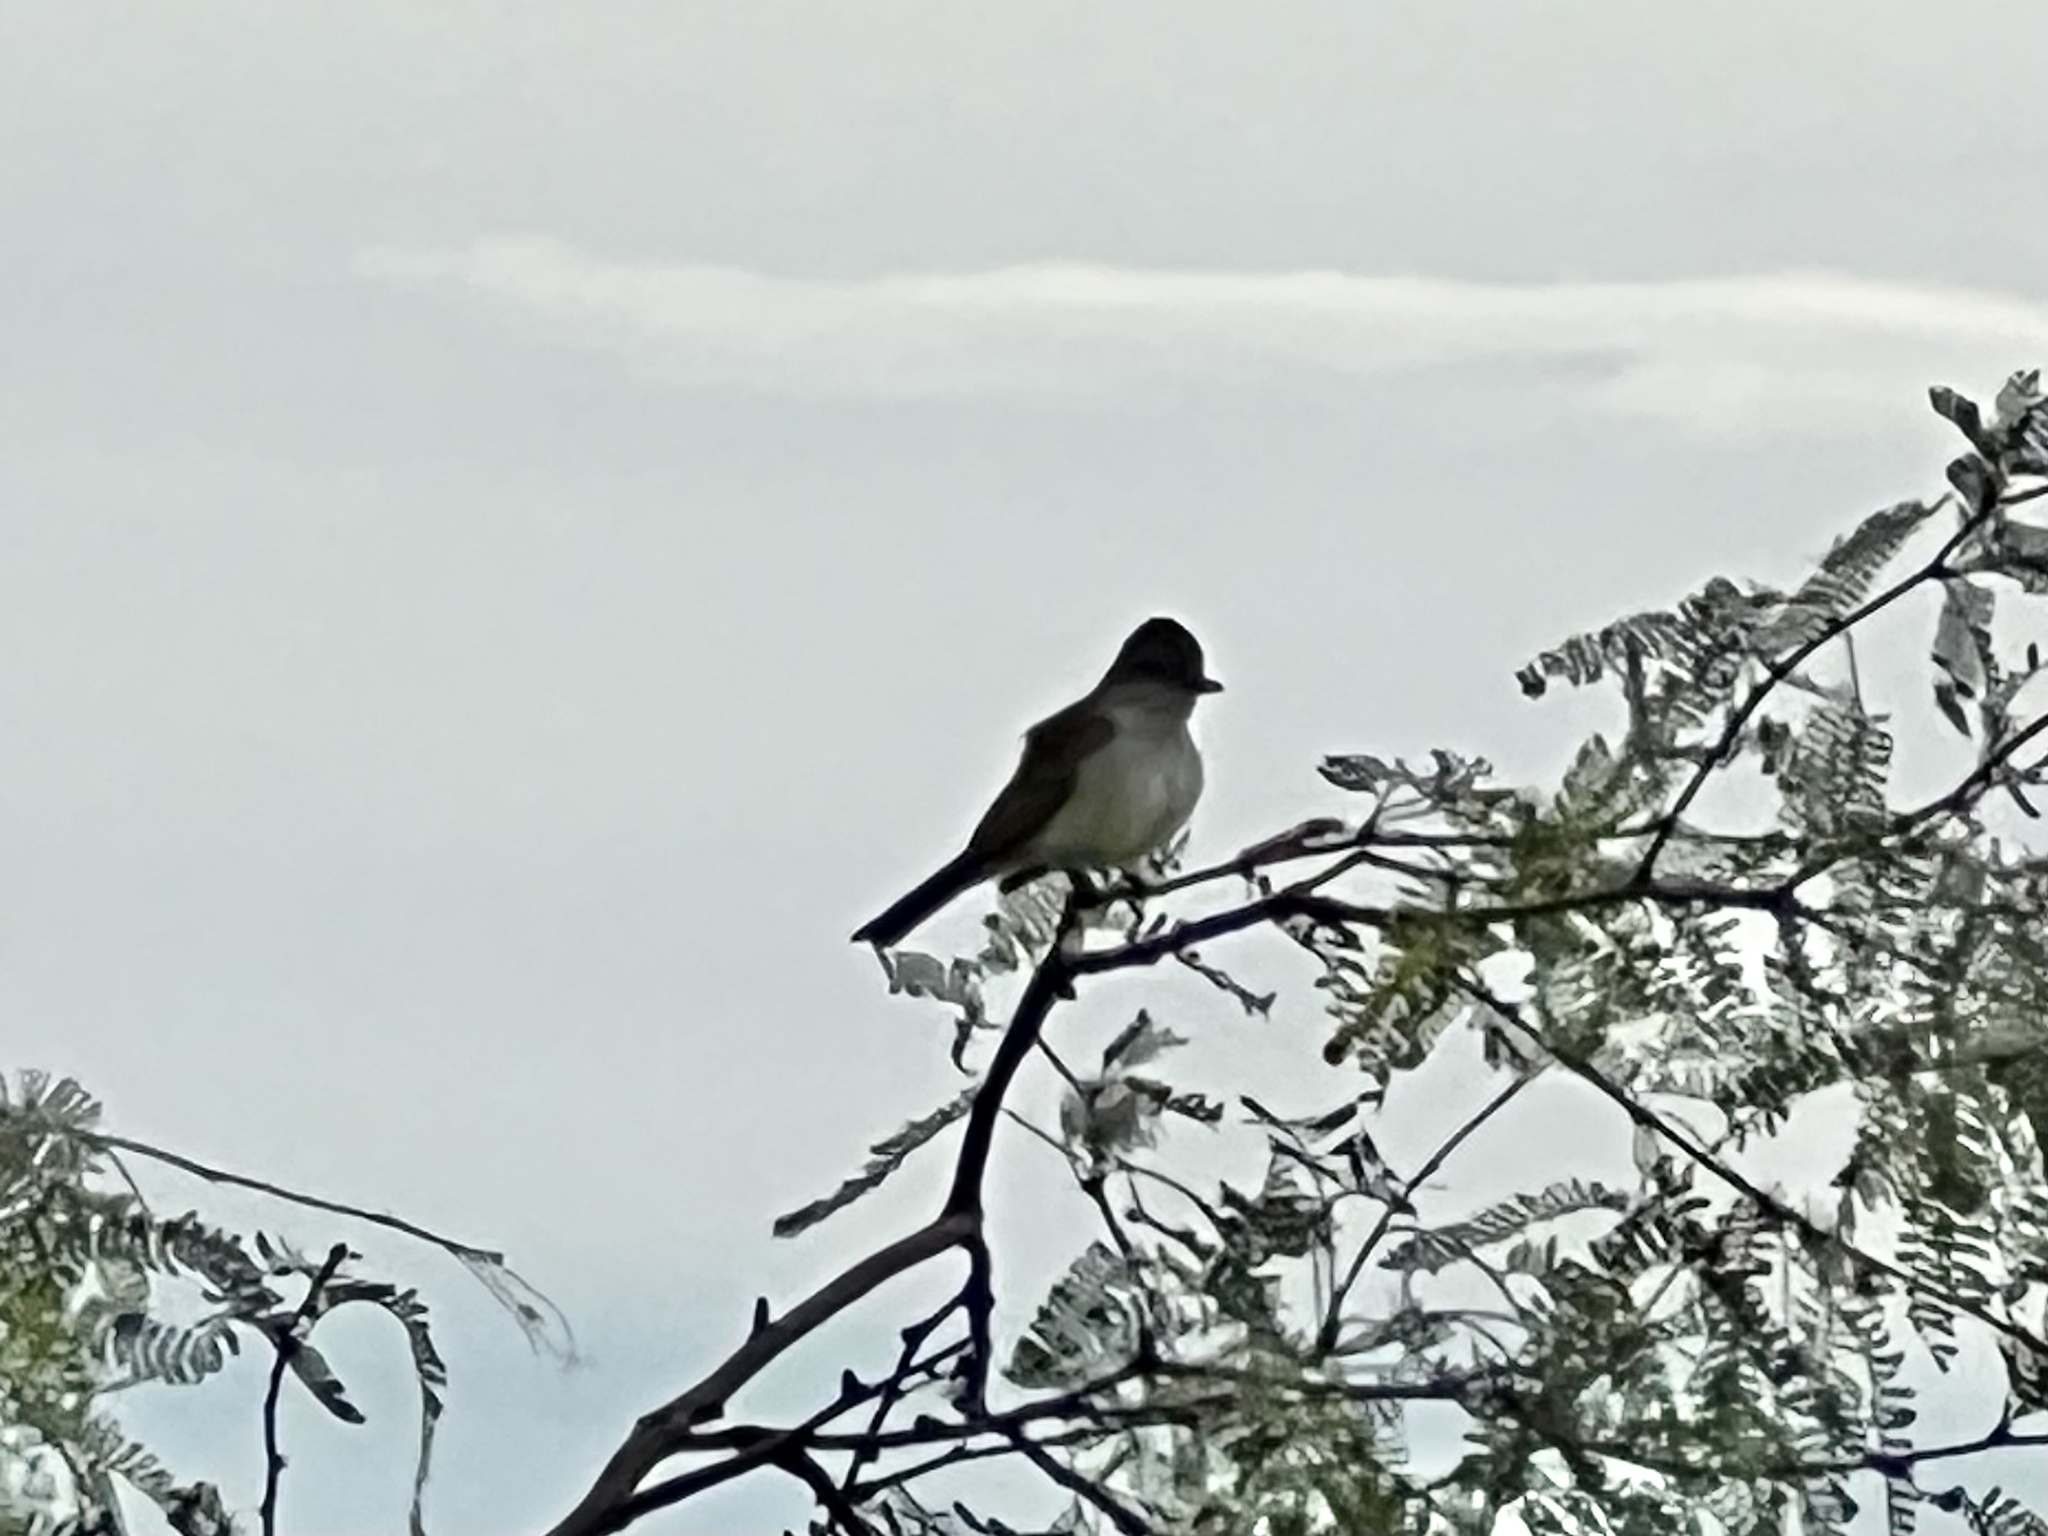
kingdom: Animalia
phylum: Chordata
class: Aves
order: Passeriformes
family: Tyrannidae
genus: Myiarchus
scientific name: Myiarchus cinerascens
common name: Ash-throated flycatcher
